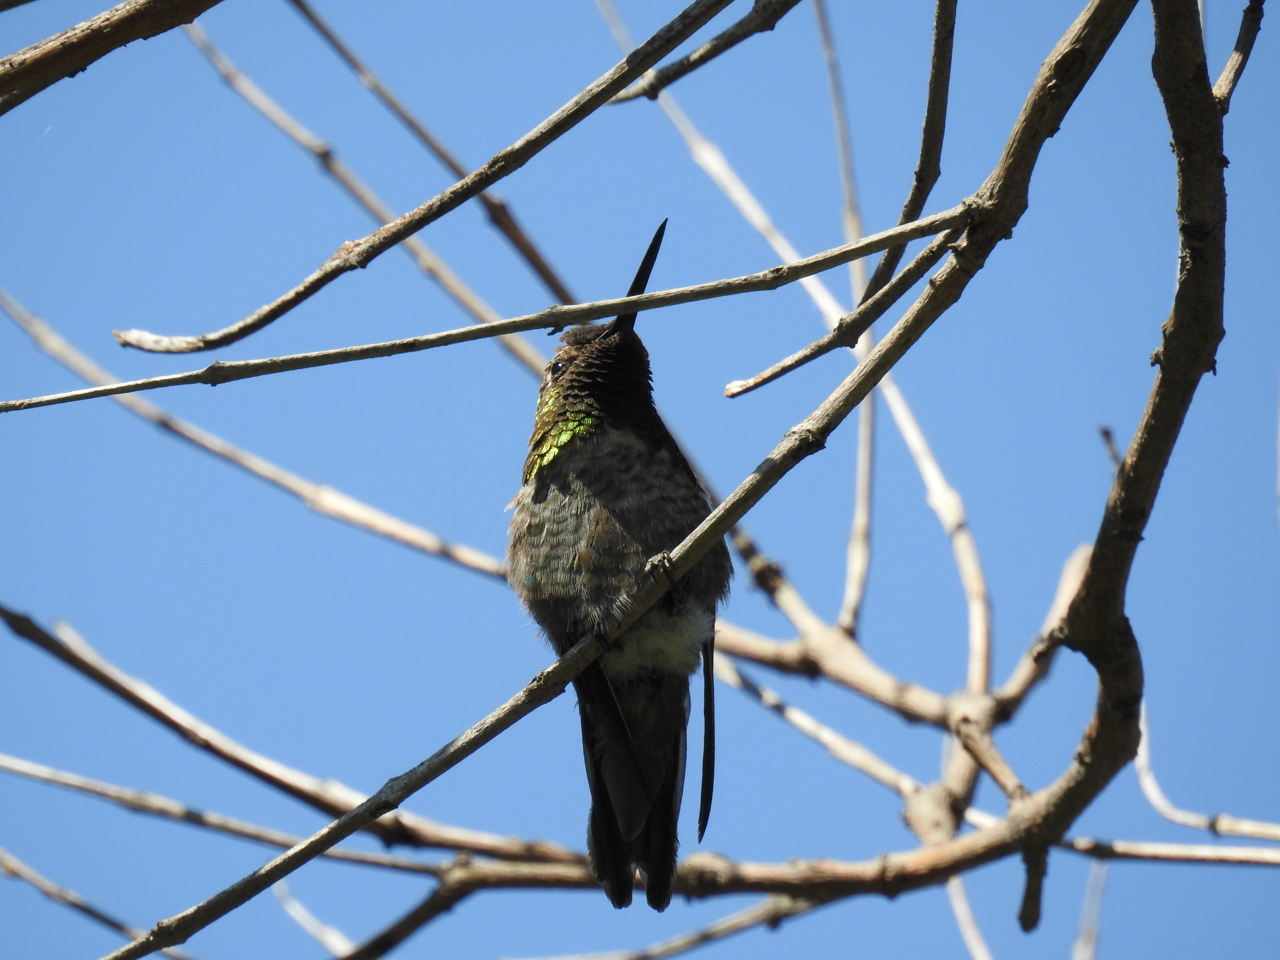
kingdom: Animalia
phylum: Chordata
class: Aves
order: Apodiformes
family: Trochilidae
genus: Calypte
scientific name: Calypte anna
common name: Anna's hummingbird
